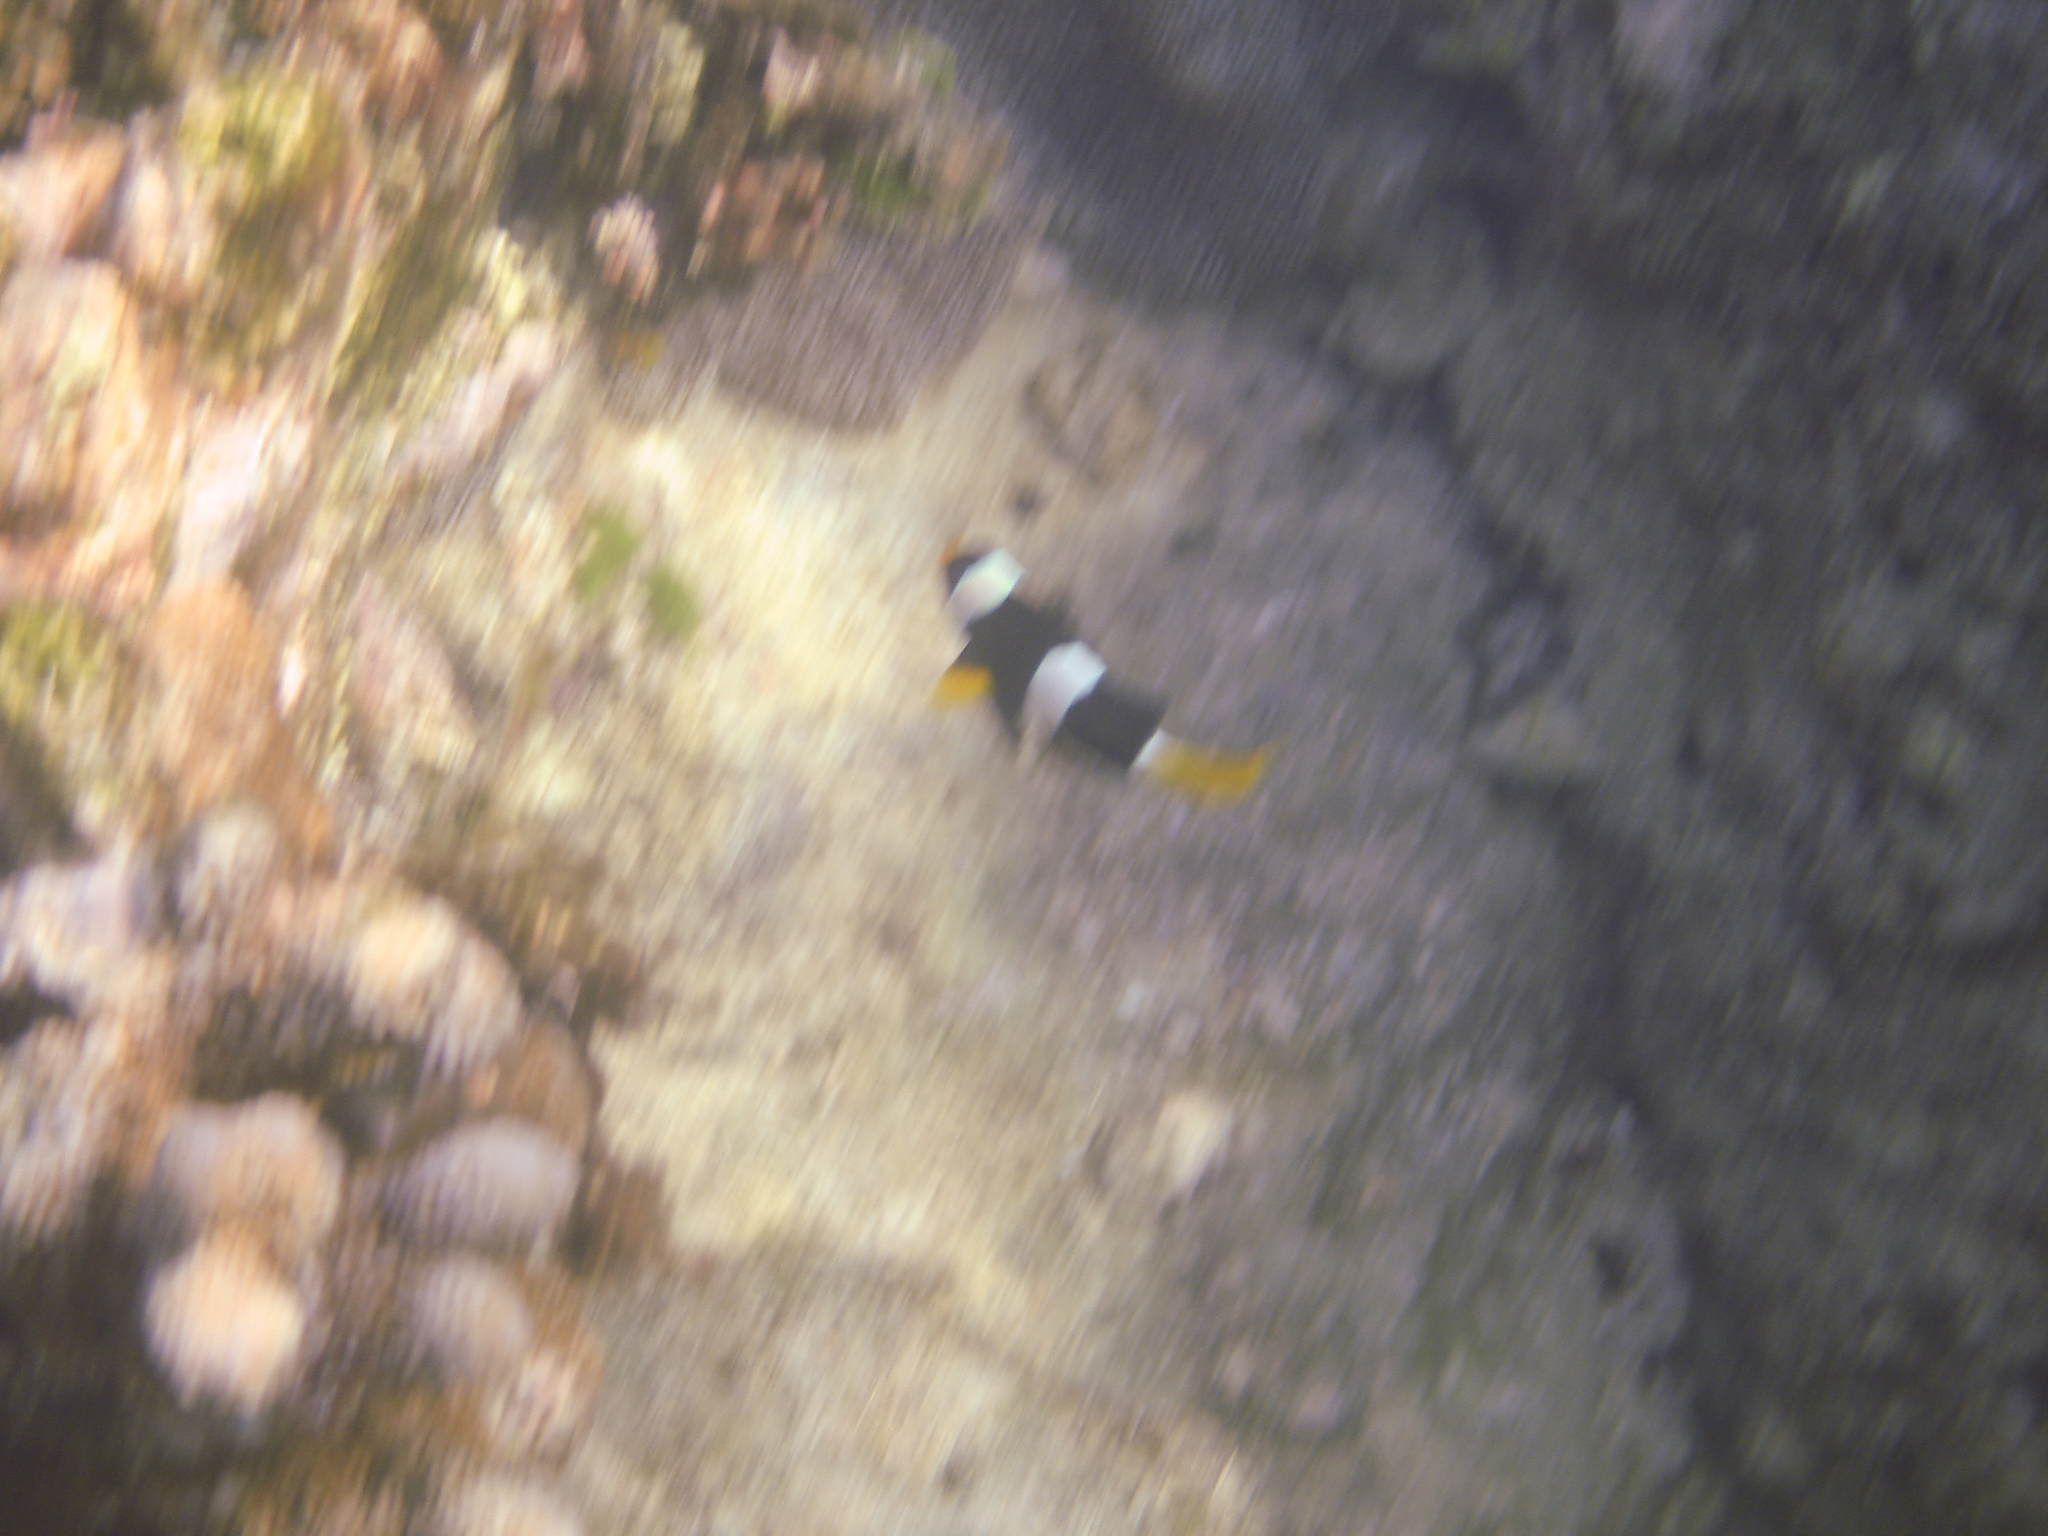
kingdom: Animalia
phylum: Chordata
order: Perciformes
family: Pomacentridae
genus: Amphiprion
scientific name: Amphiprion clarkii
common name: Clark's anemonefish
